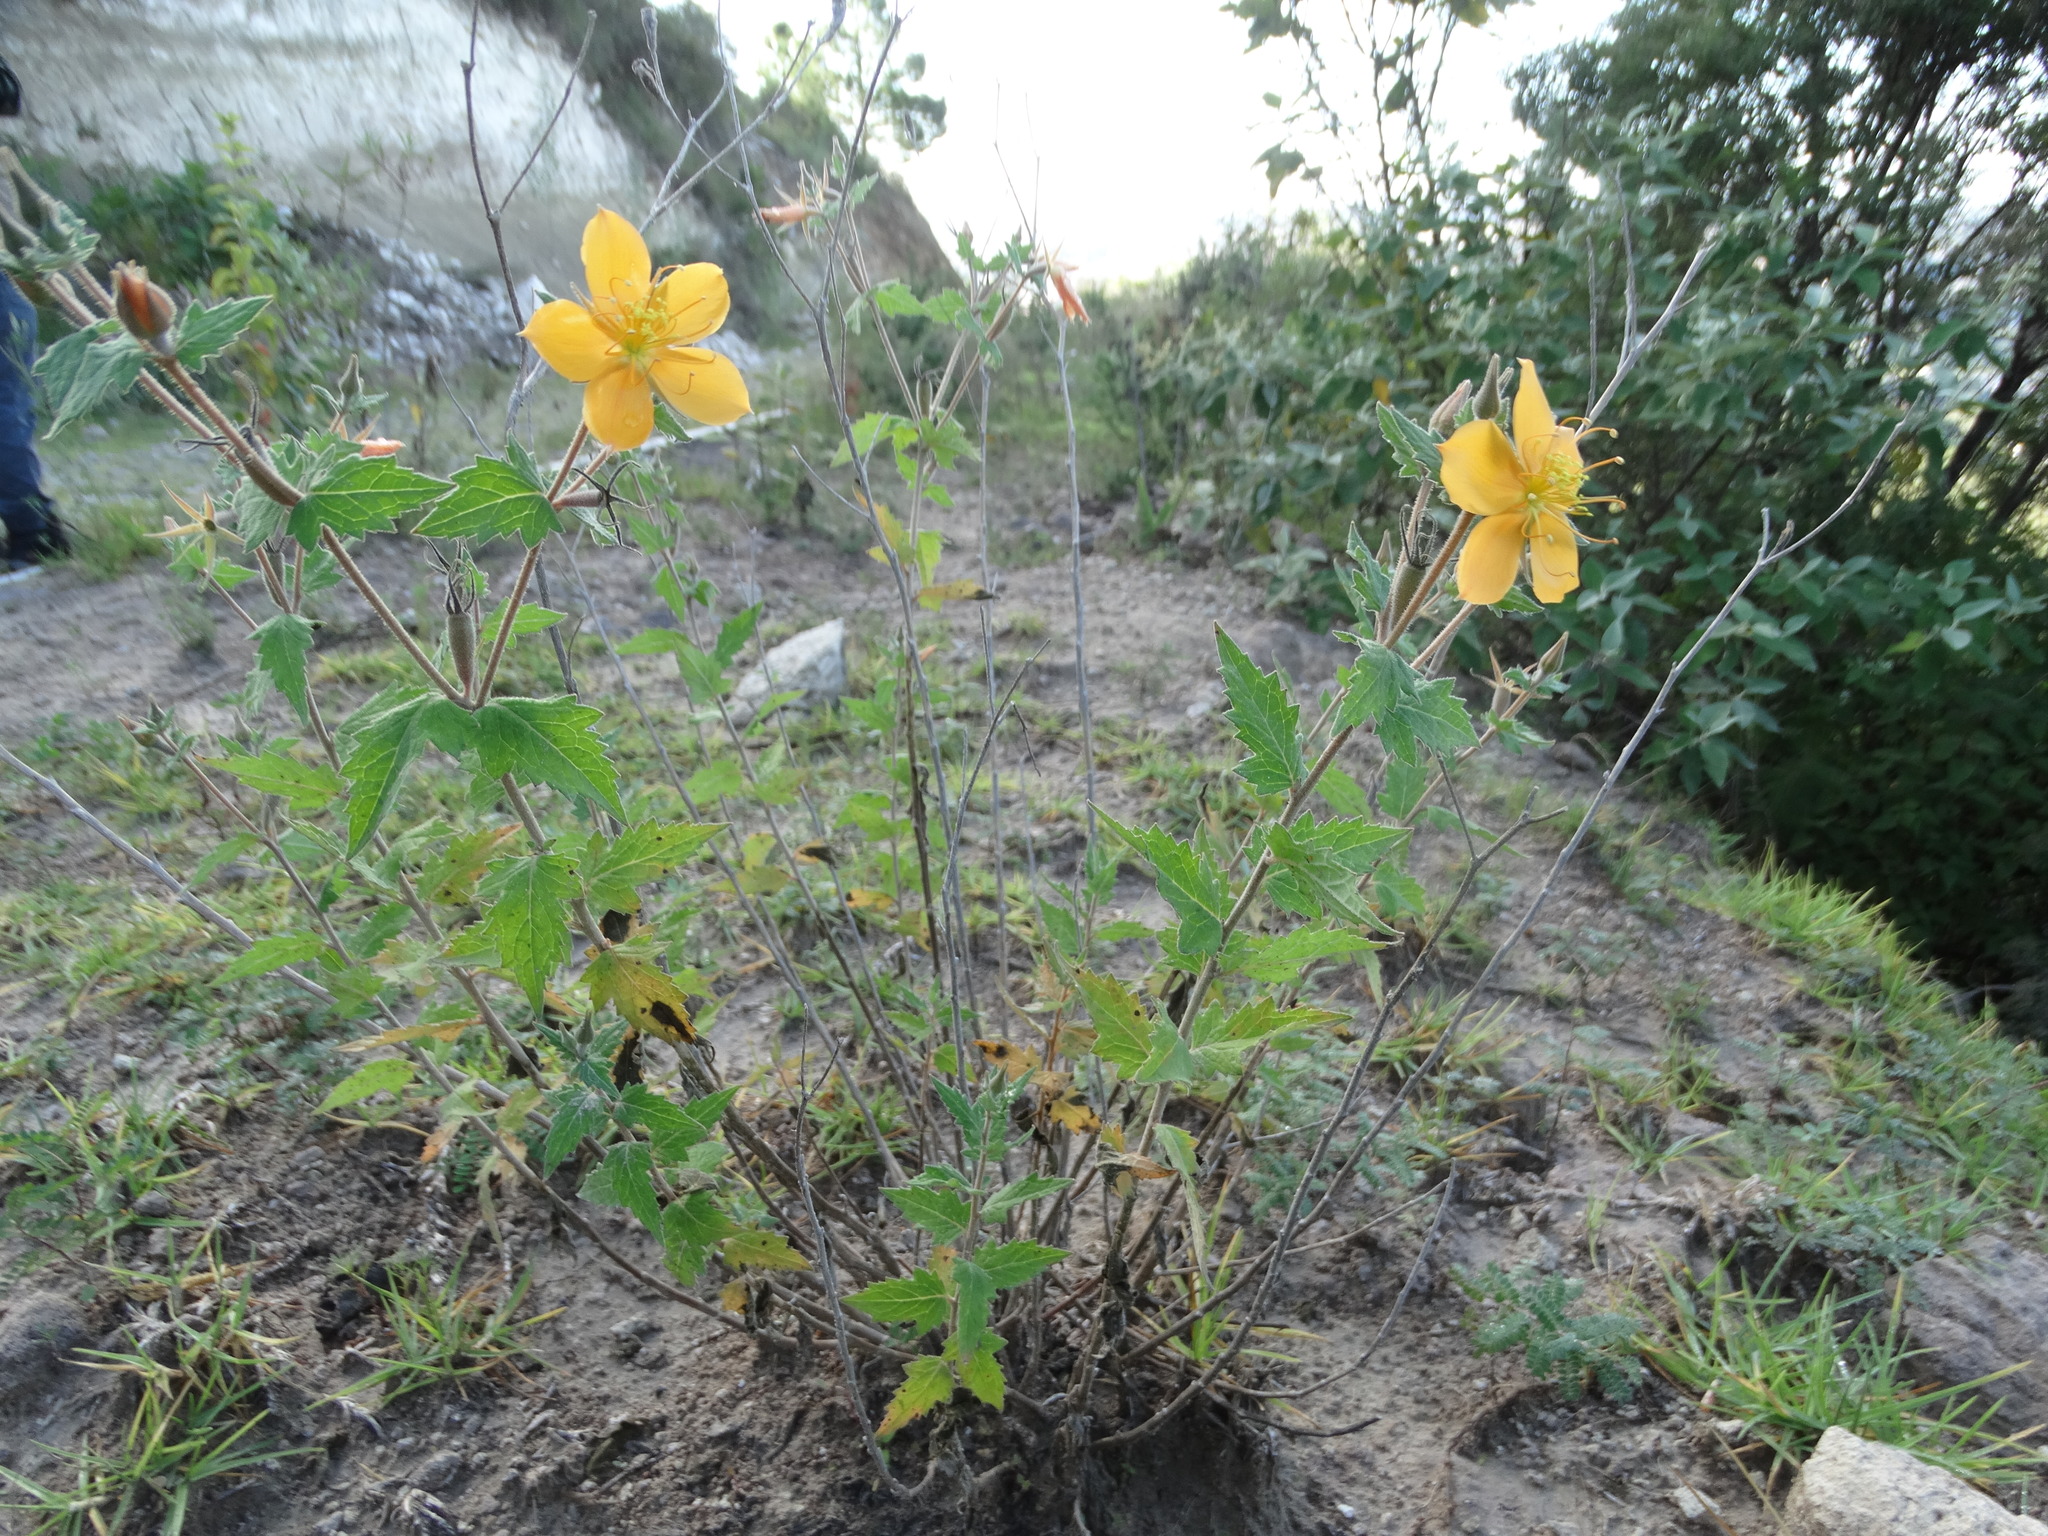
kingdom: Plantae
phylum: Tracheophyta
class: Magnoliopsida
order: Cornales
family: Loasaceae
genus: Mentzelia
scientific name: Mentzelia hispida
